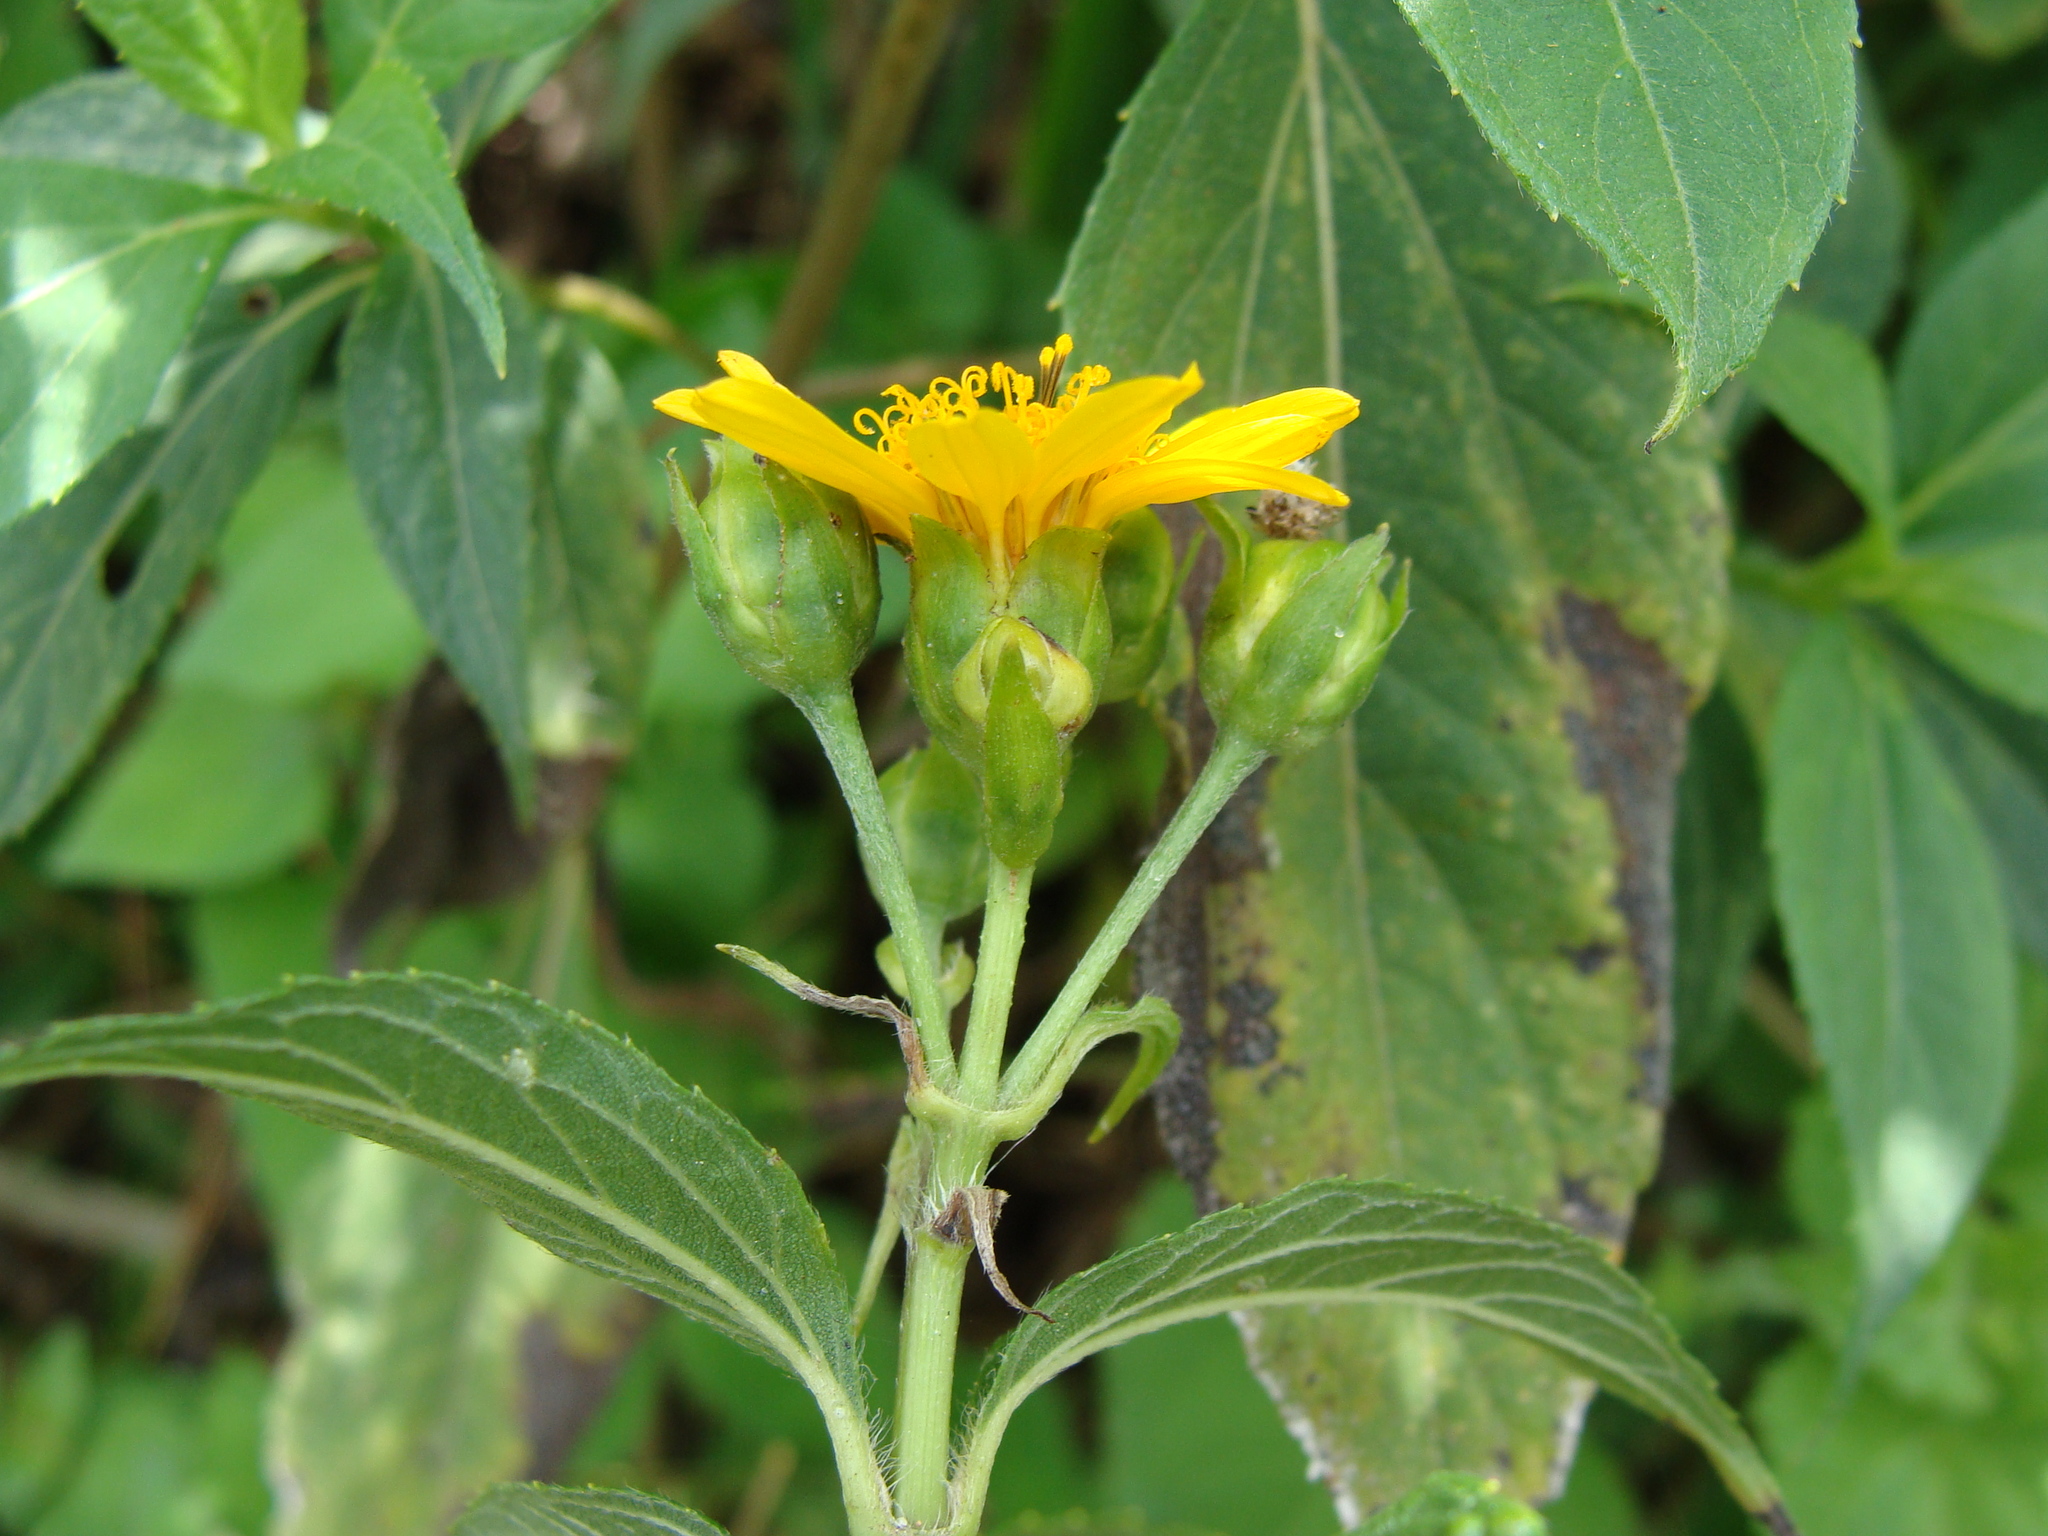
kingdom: Plantae
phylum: Tracheophyta
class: Magnoliopsida
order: Asterales
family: Asteraceae
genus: Perymenium
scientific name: Perymenium grande
